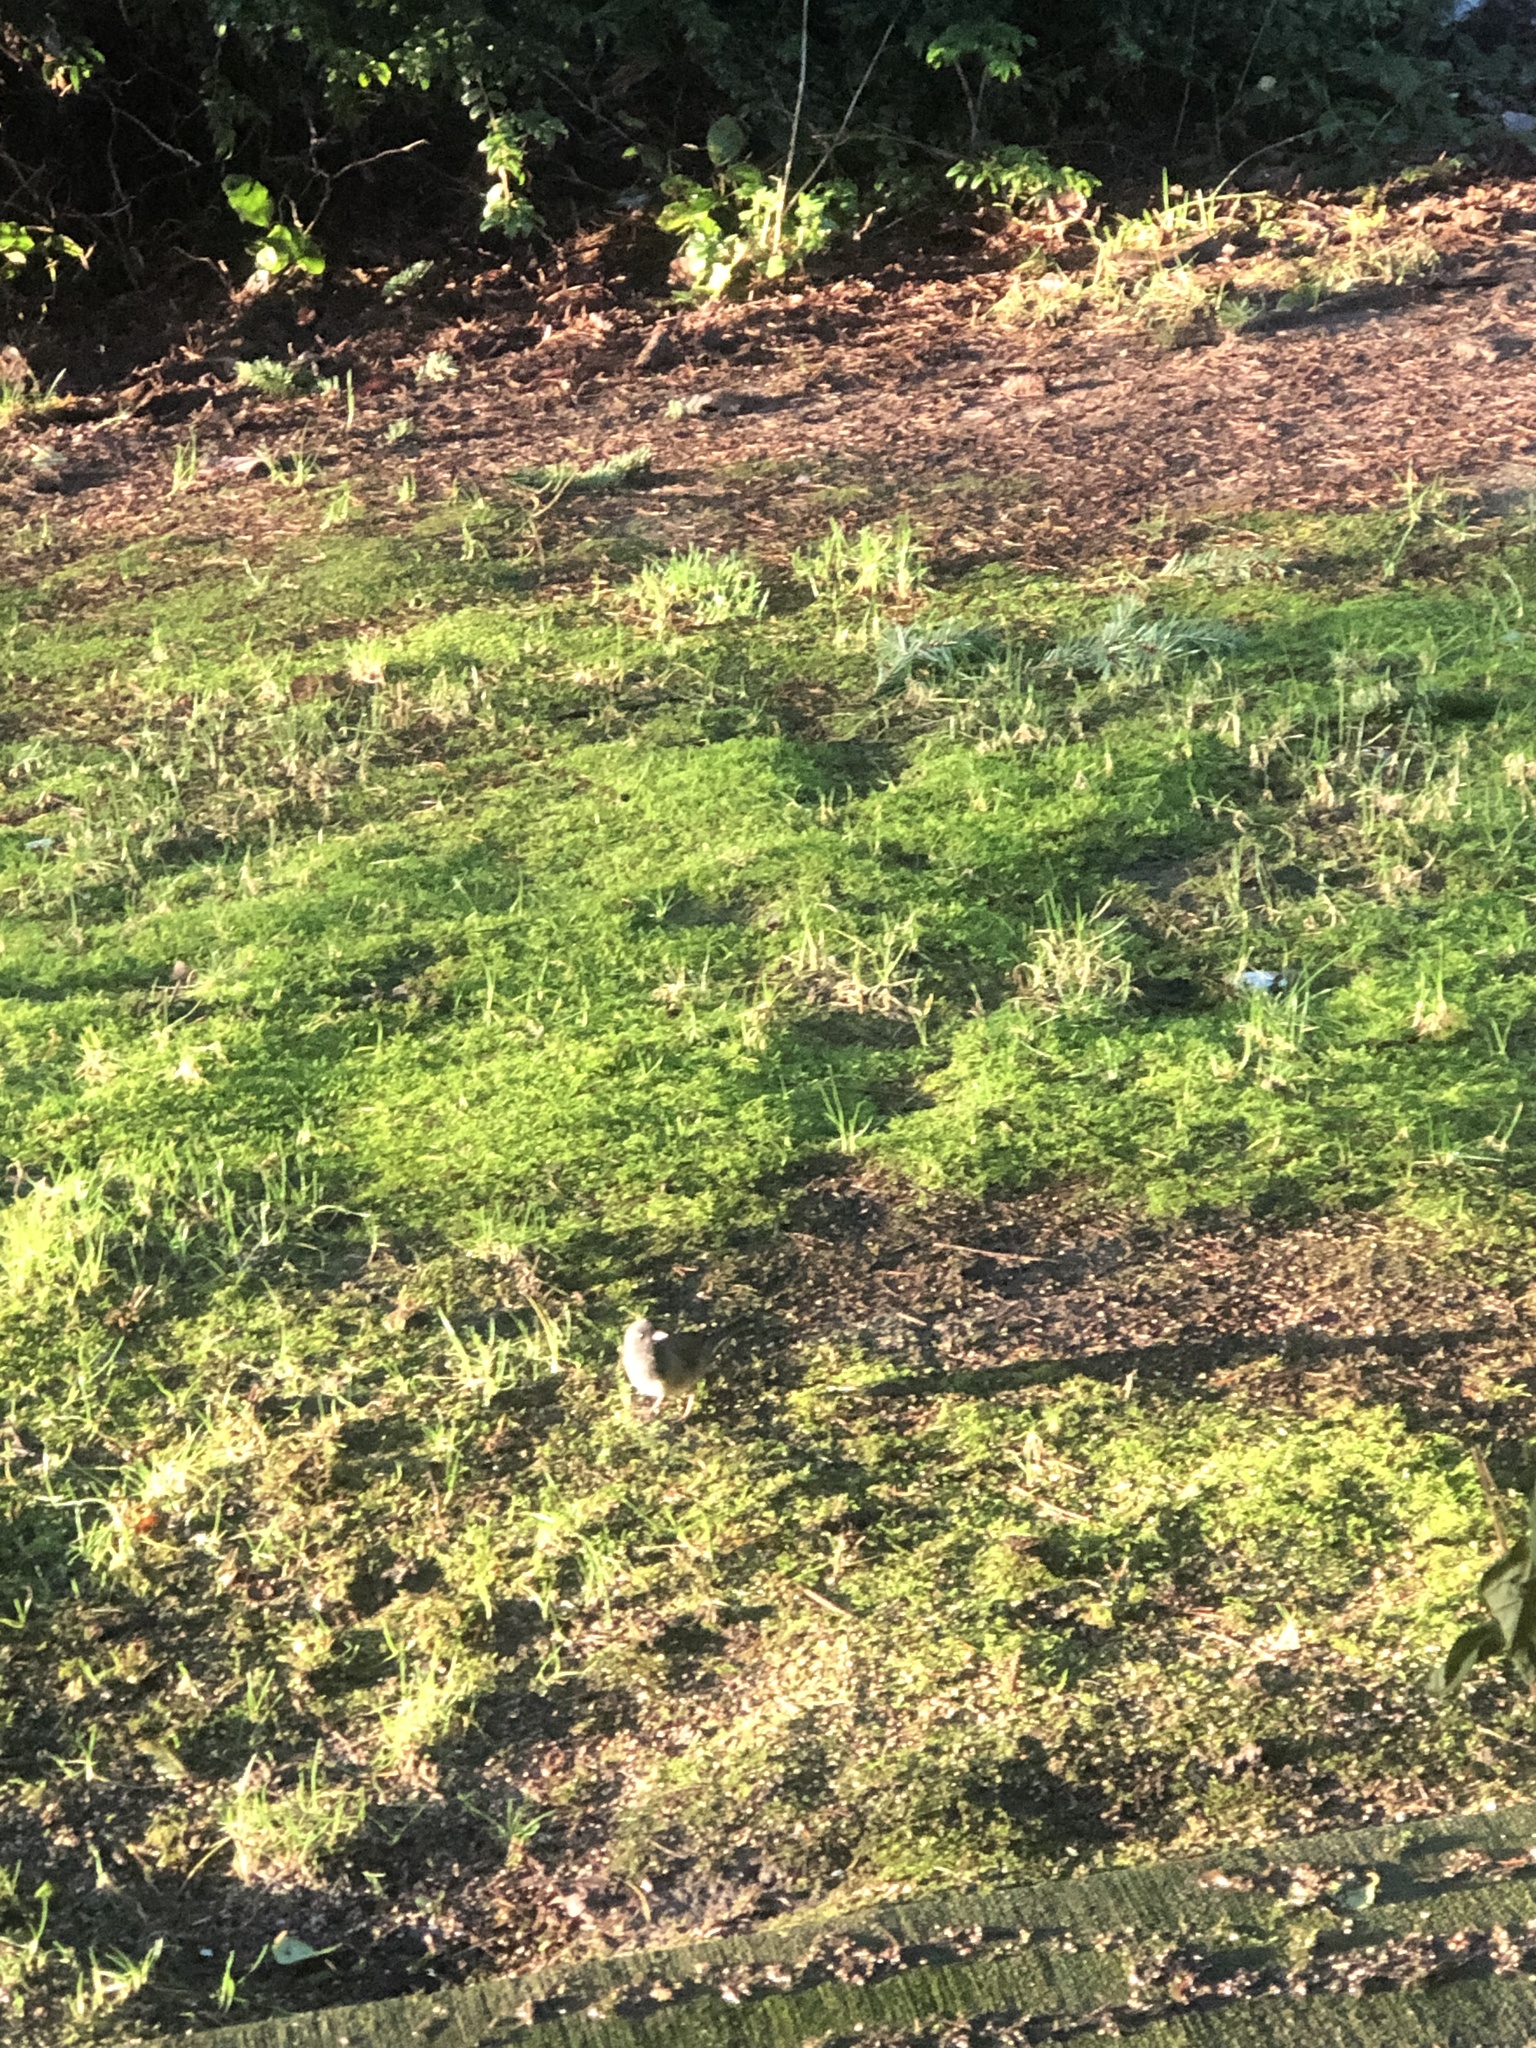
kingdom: Animalia
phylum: Chordata
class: Aves
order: Passeriformes
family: Passerellidae
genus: Junco
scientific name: Junco hyemalis
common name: Dark-eyed junco
